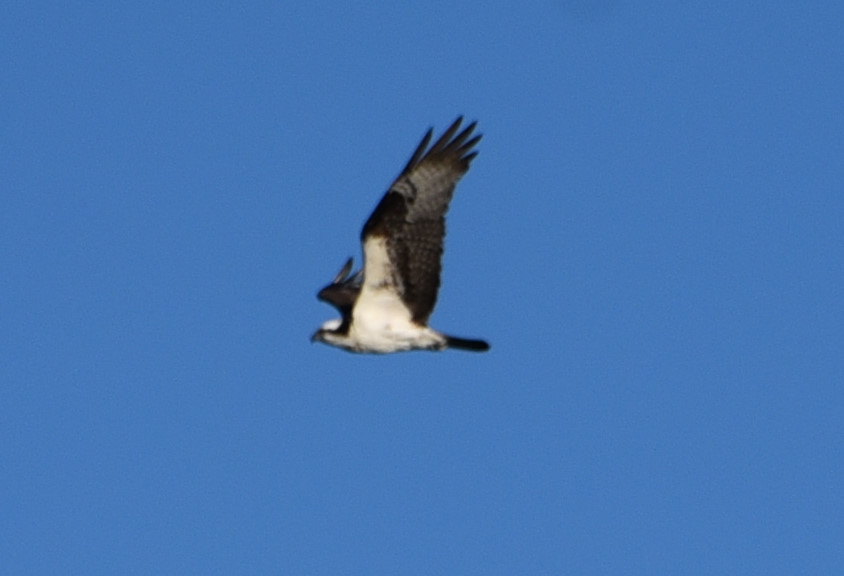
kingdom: Animalia
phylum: Chordata
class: Aves
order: Accipitriformes
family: Pandionidae
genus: Pandion
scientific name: Pandion haliaetus
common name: Osprey
